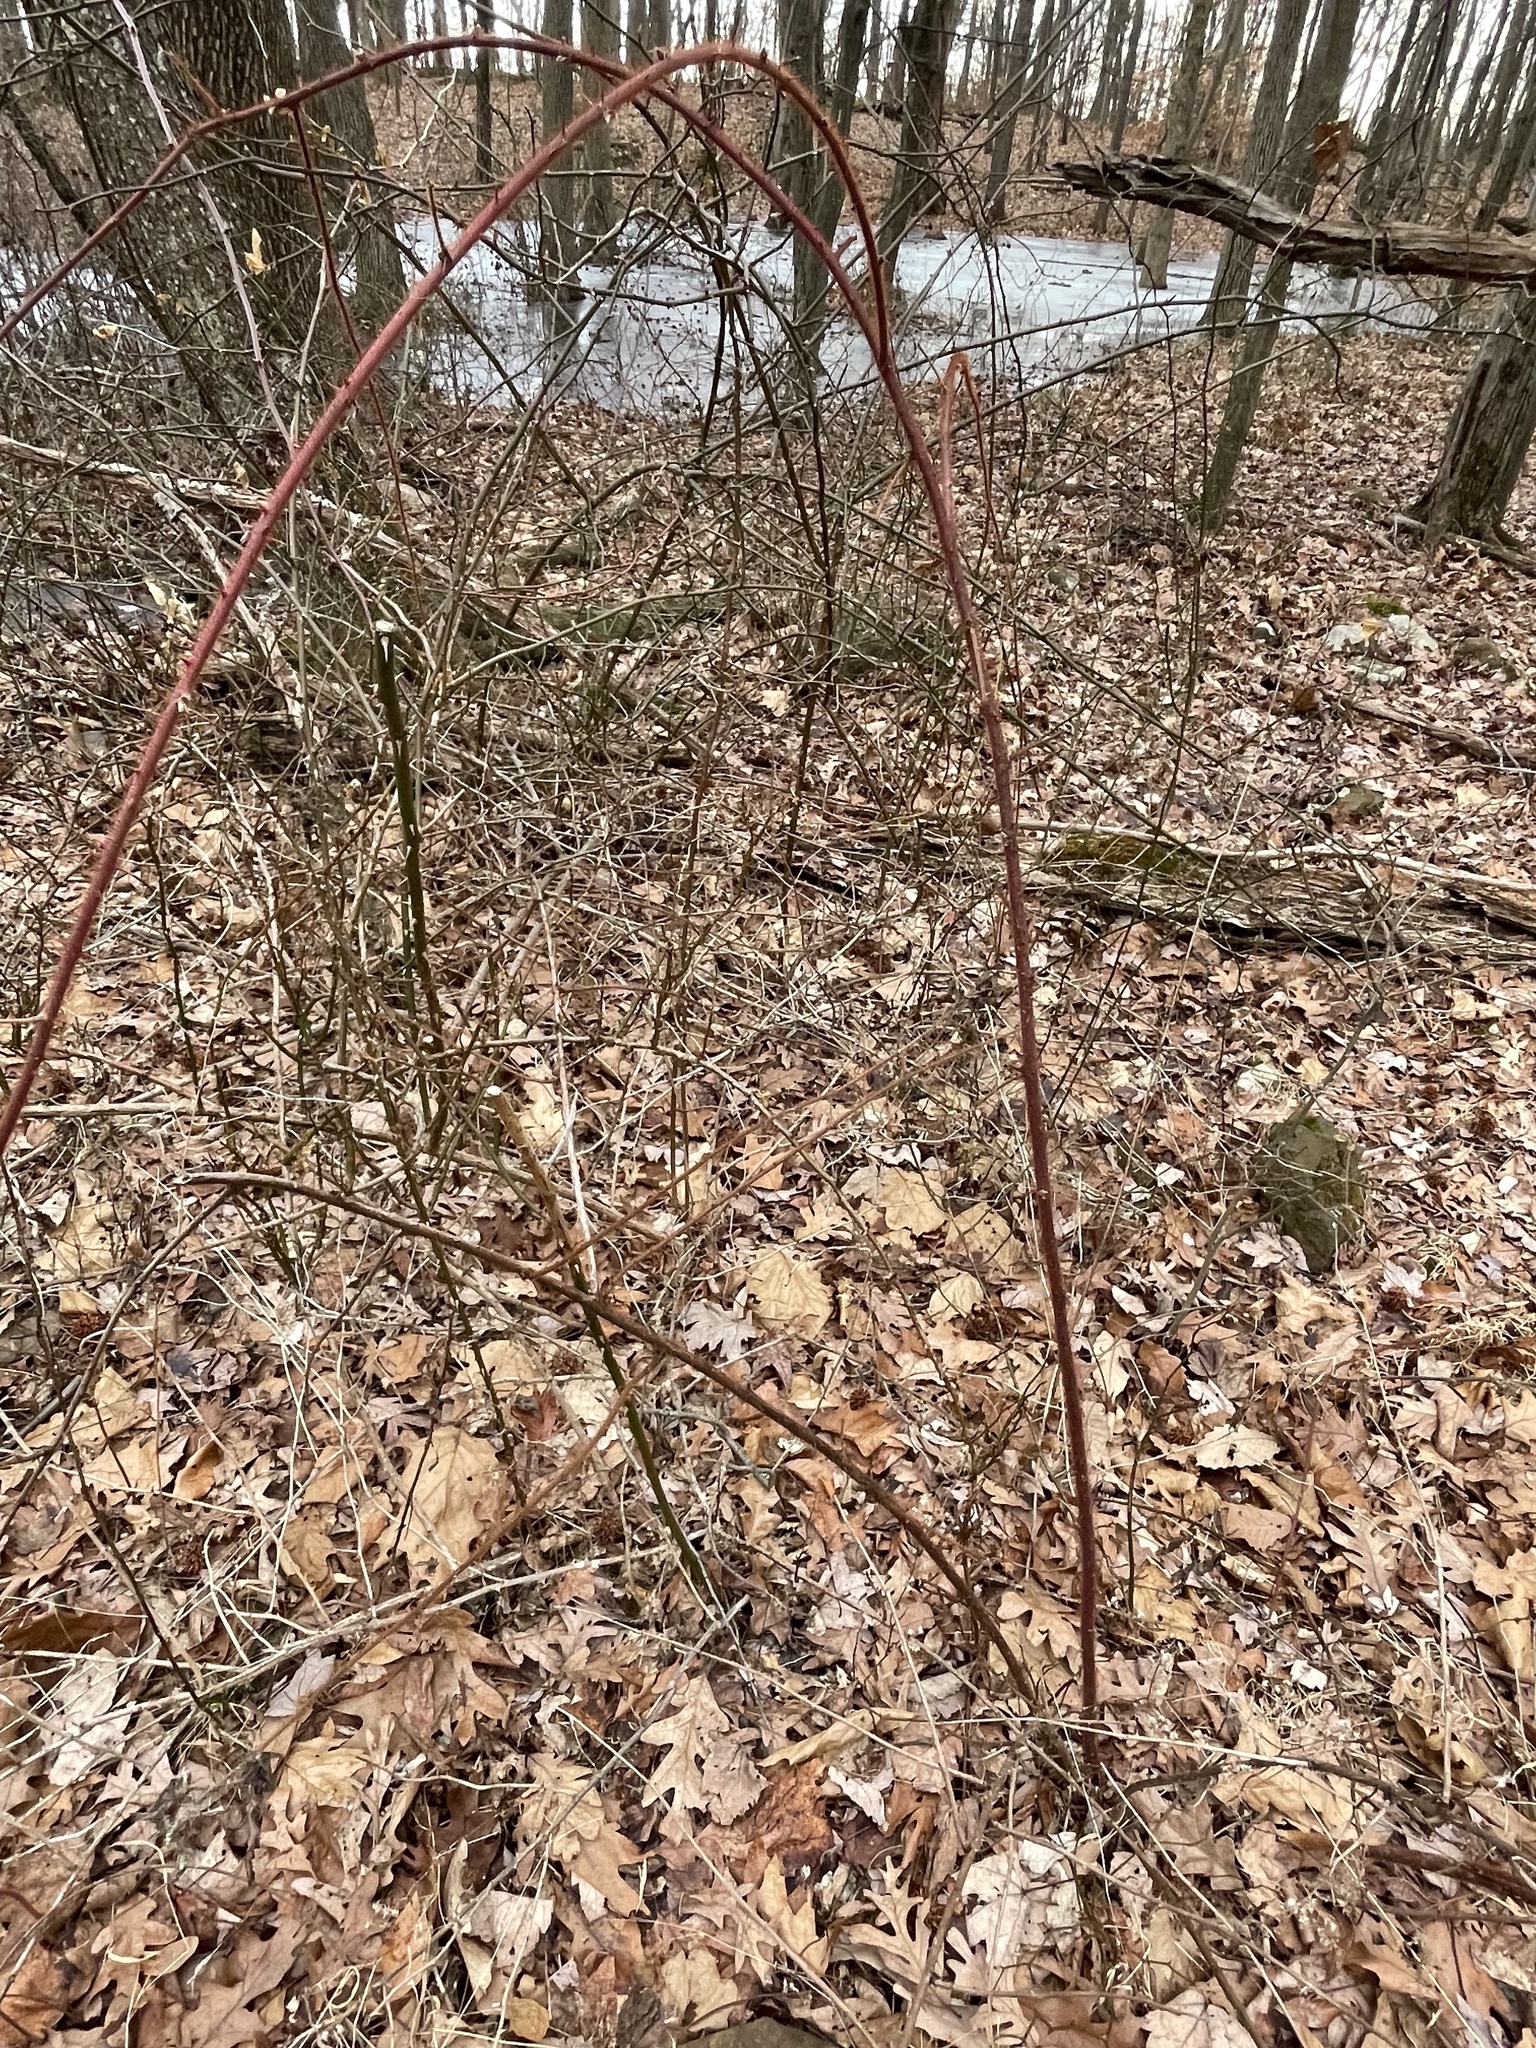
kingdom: Plantae
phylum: Tracheophyta
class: Magnoliopsida
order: Rosales
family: Rosaceae
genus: Rubus
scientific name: Rubus phoenicolasius
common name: Japanese wineberry
